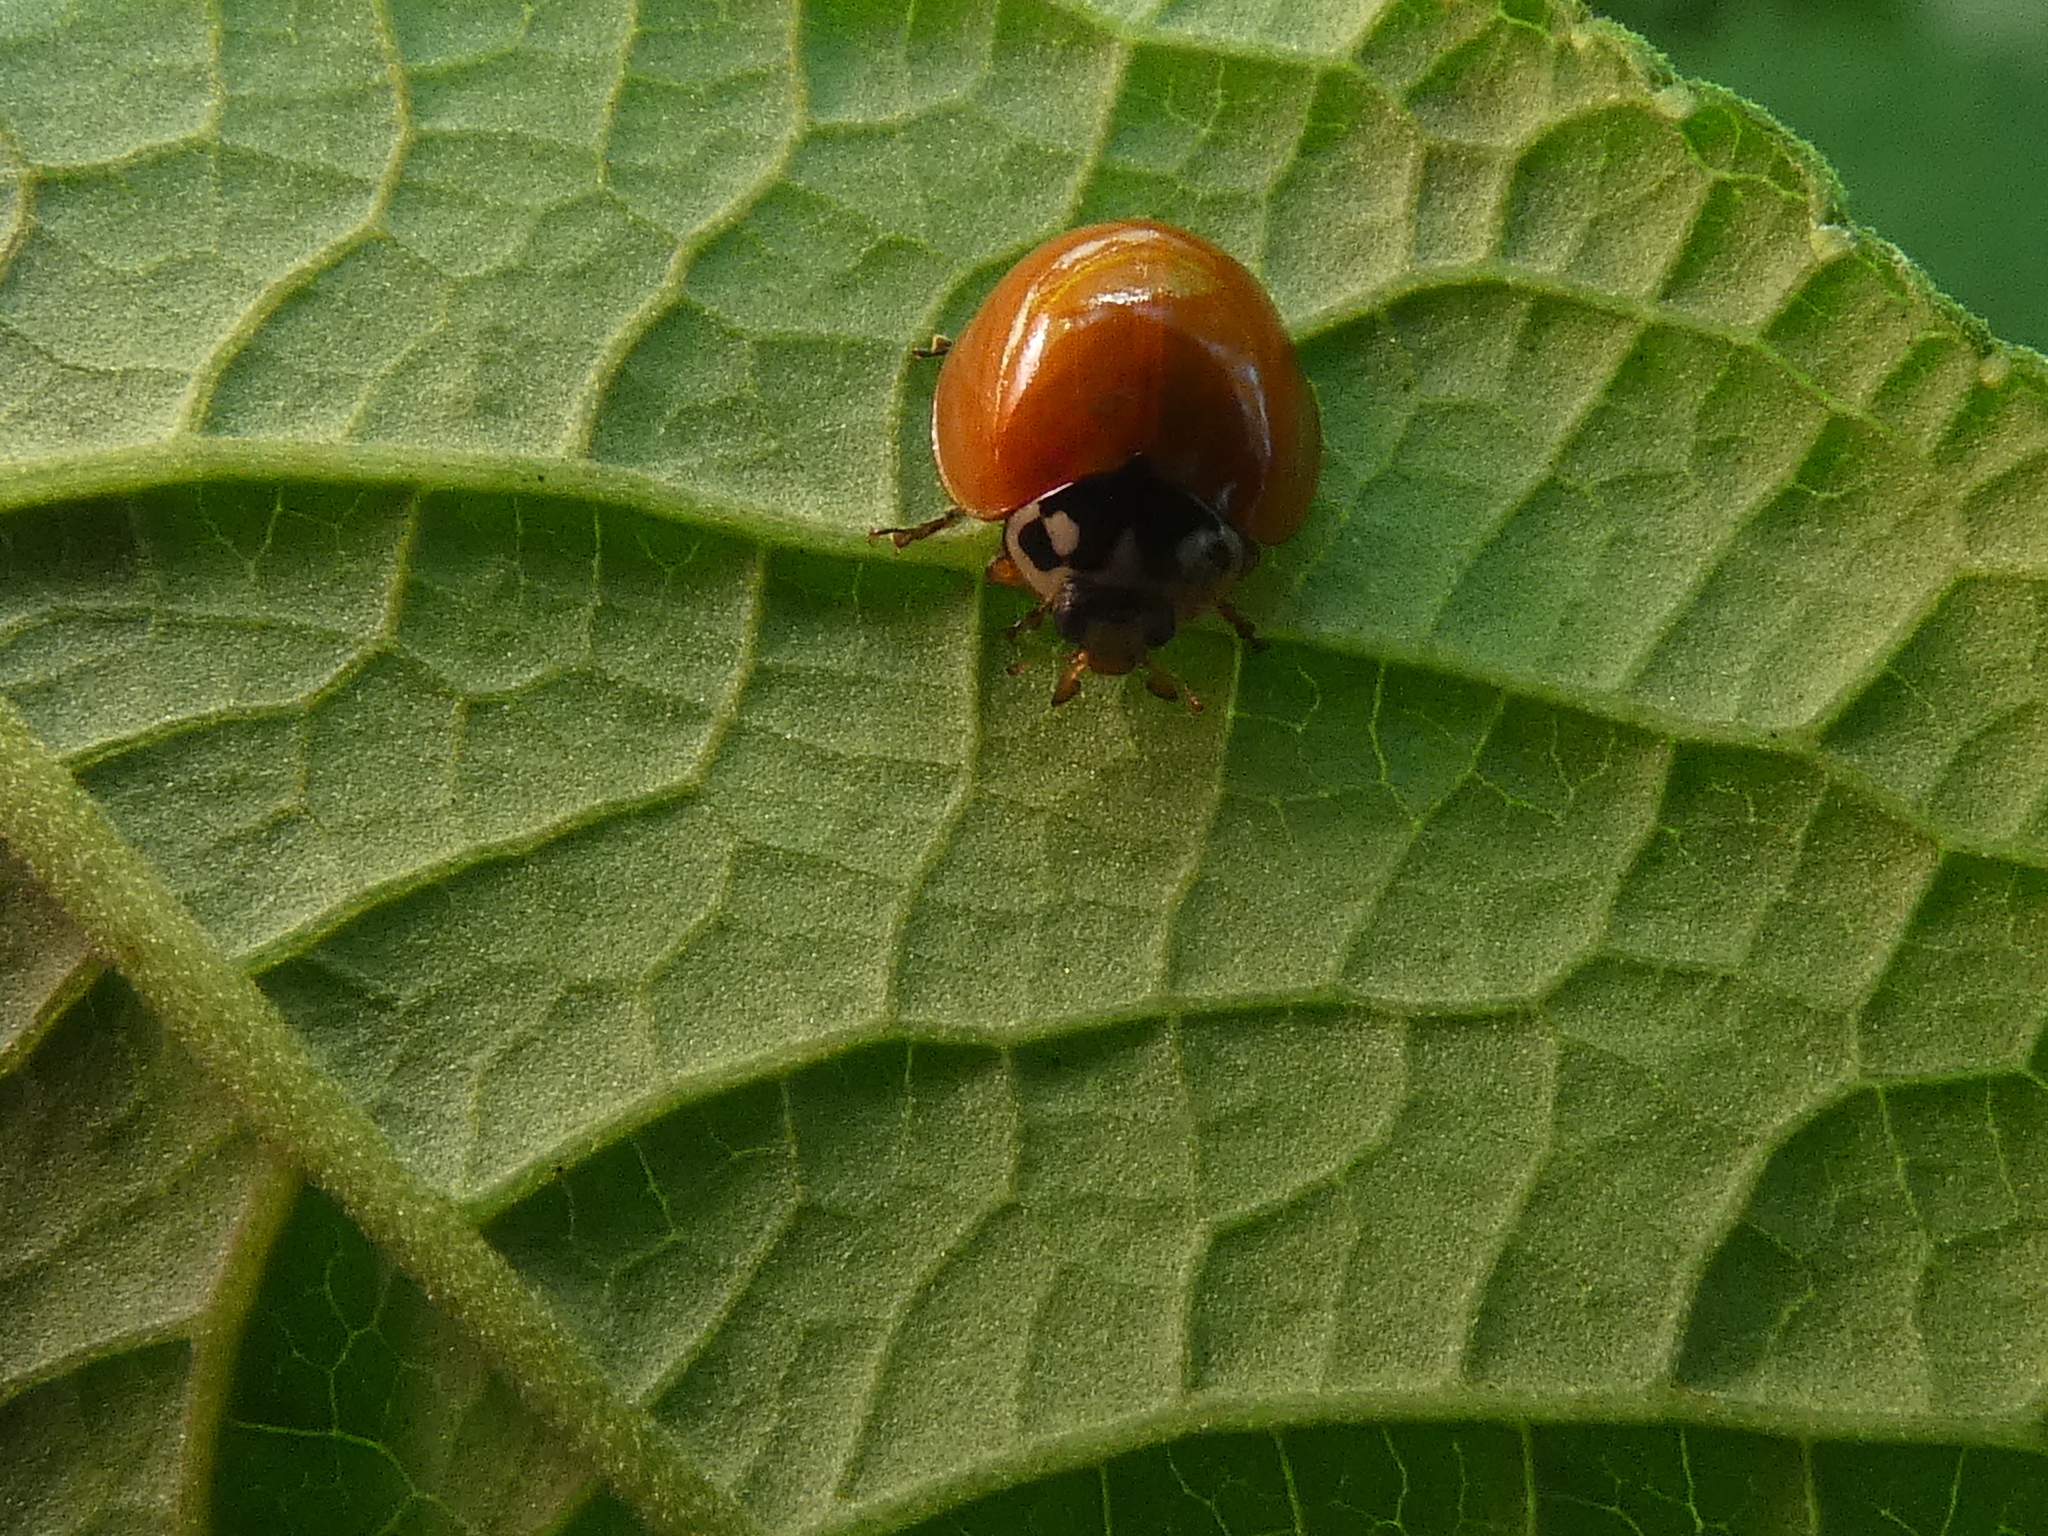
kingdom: Animalia
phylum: Arthropoda
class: Insecta
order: Coleoptera
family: Coccinellidae
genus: Cycloneda
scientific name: Cycloneda sanguinea
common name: Ladybird beetle
